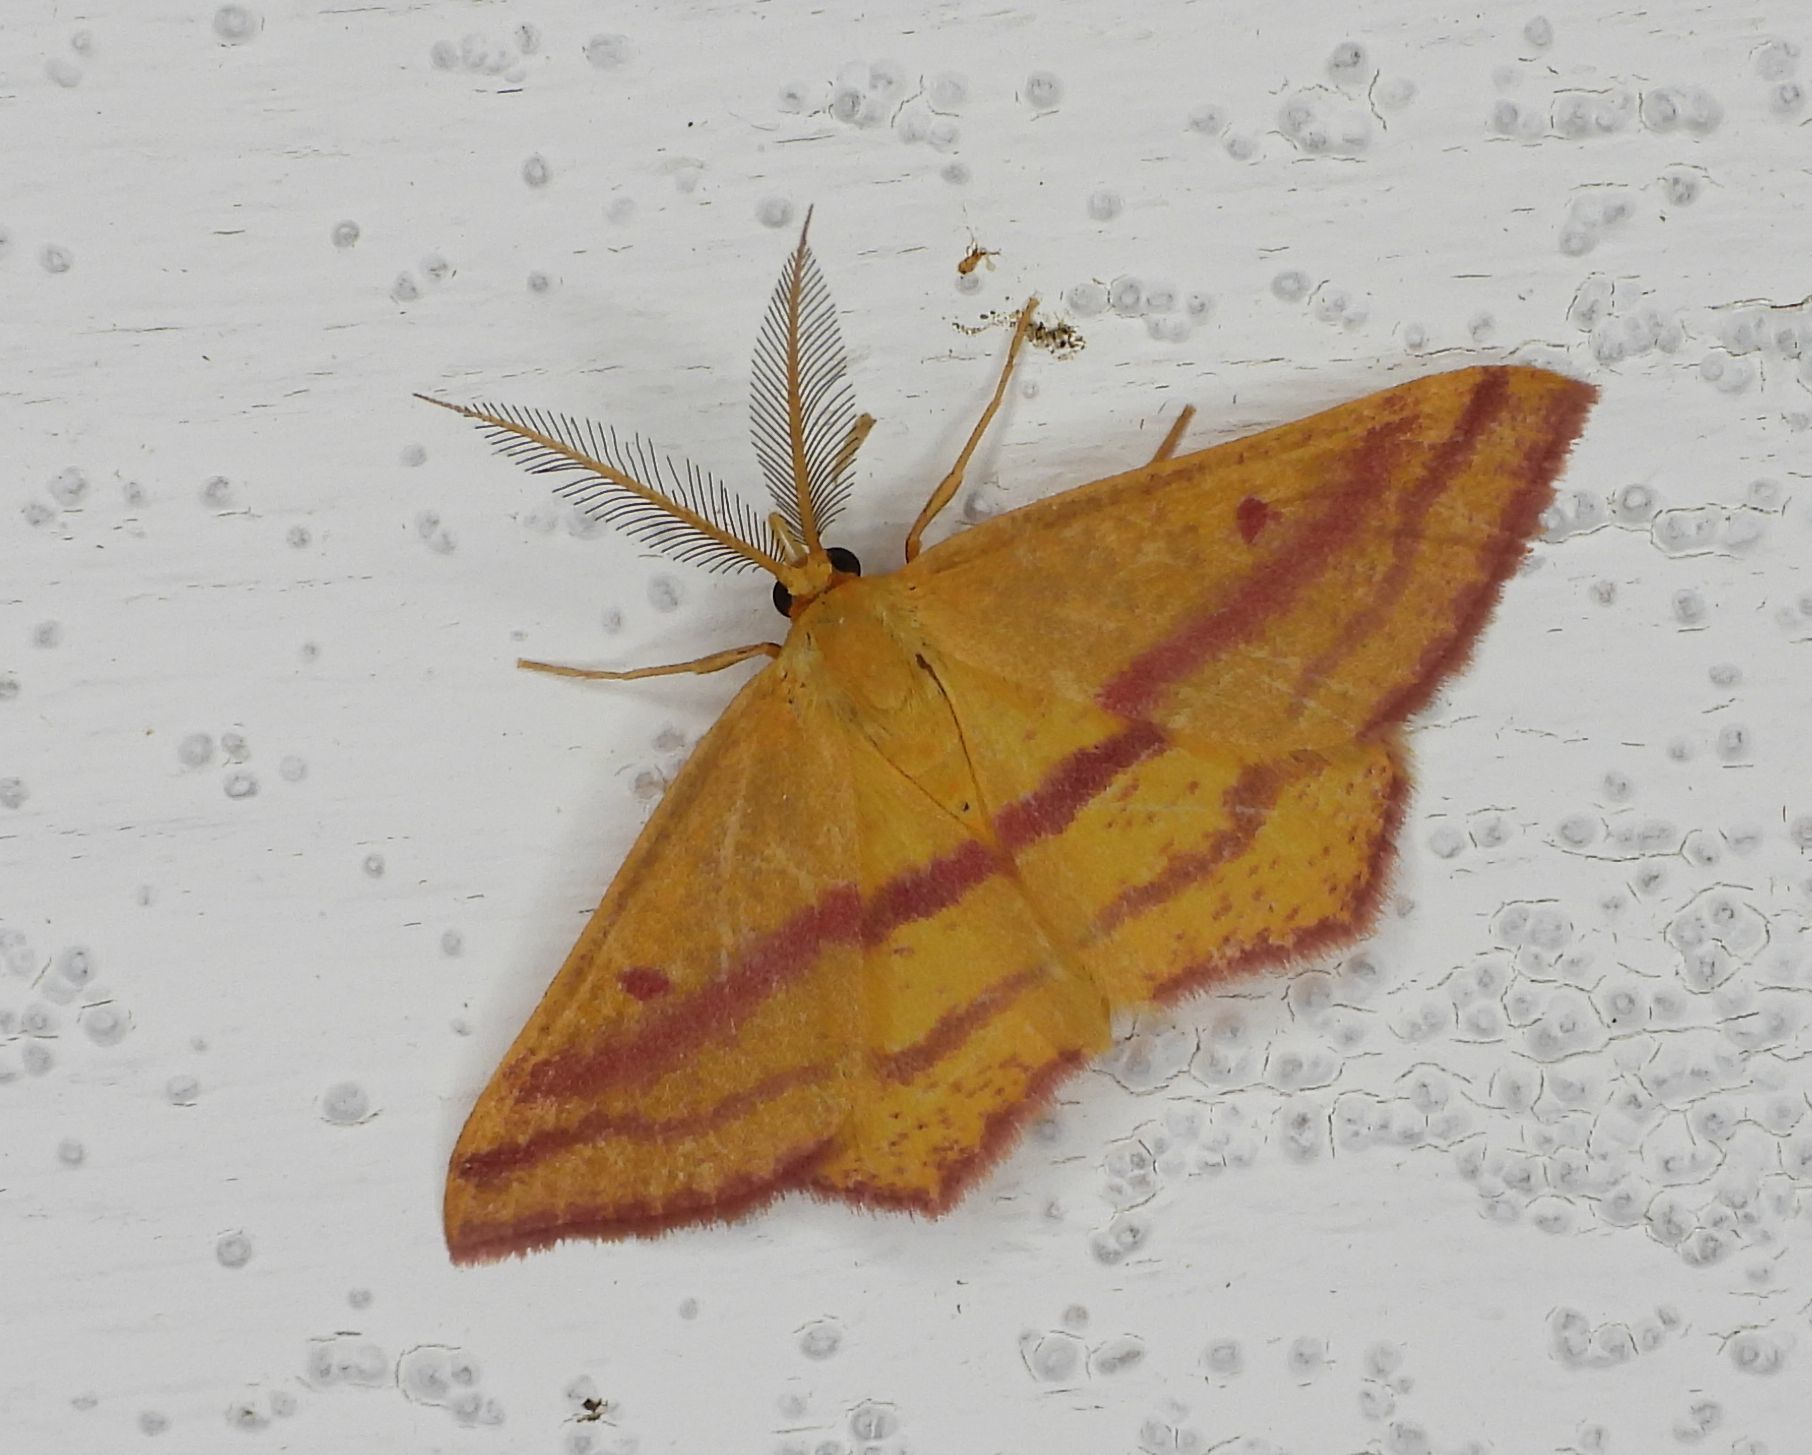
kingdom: Animalia
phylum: Arthropoda
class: Insecta
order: Lepidoptera
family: Geometridae
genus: Haematopis
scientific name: Haematopis grataria
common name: Chickweed geometer
